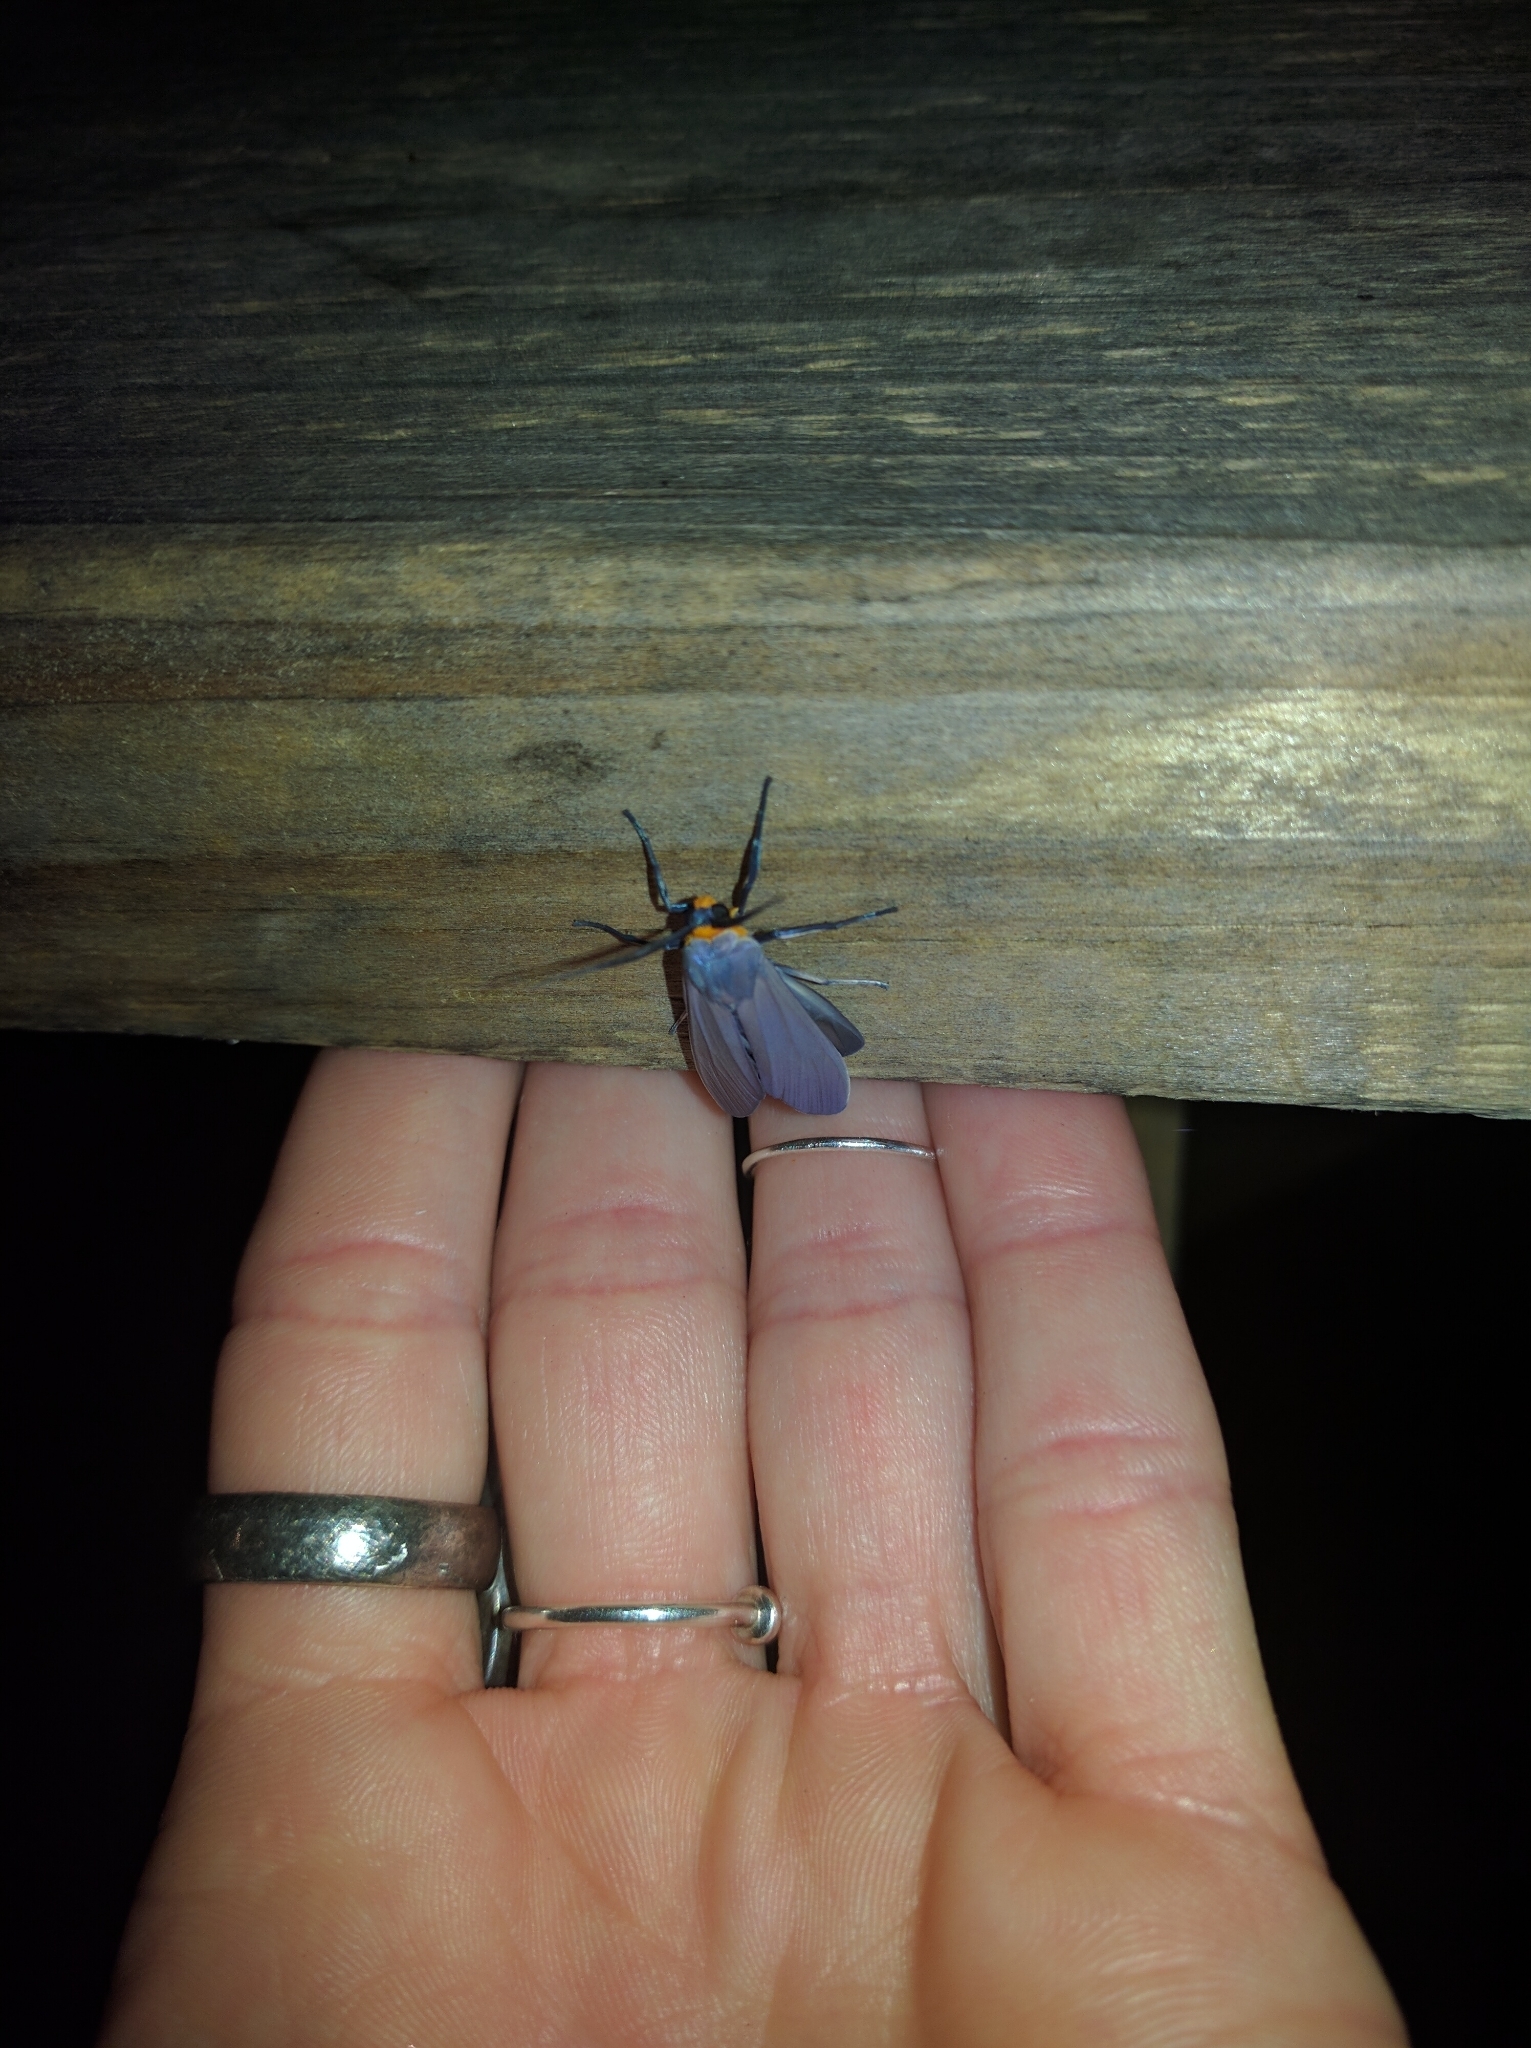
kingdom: Animalia
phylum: Arthropoda
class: Insecta
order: Lepidoptera
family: Erebidae
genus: Lymire
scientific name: Lymire edwardsii
